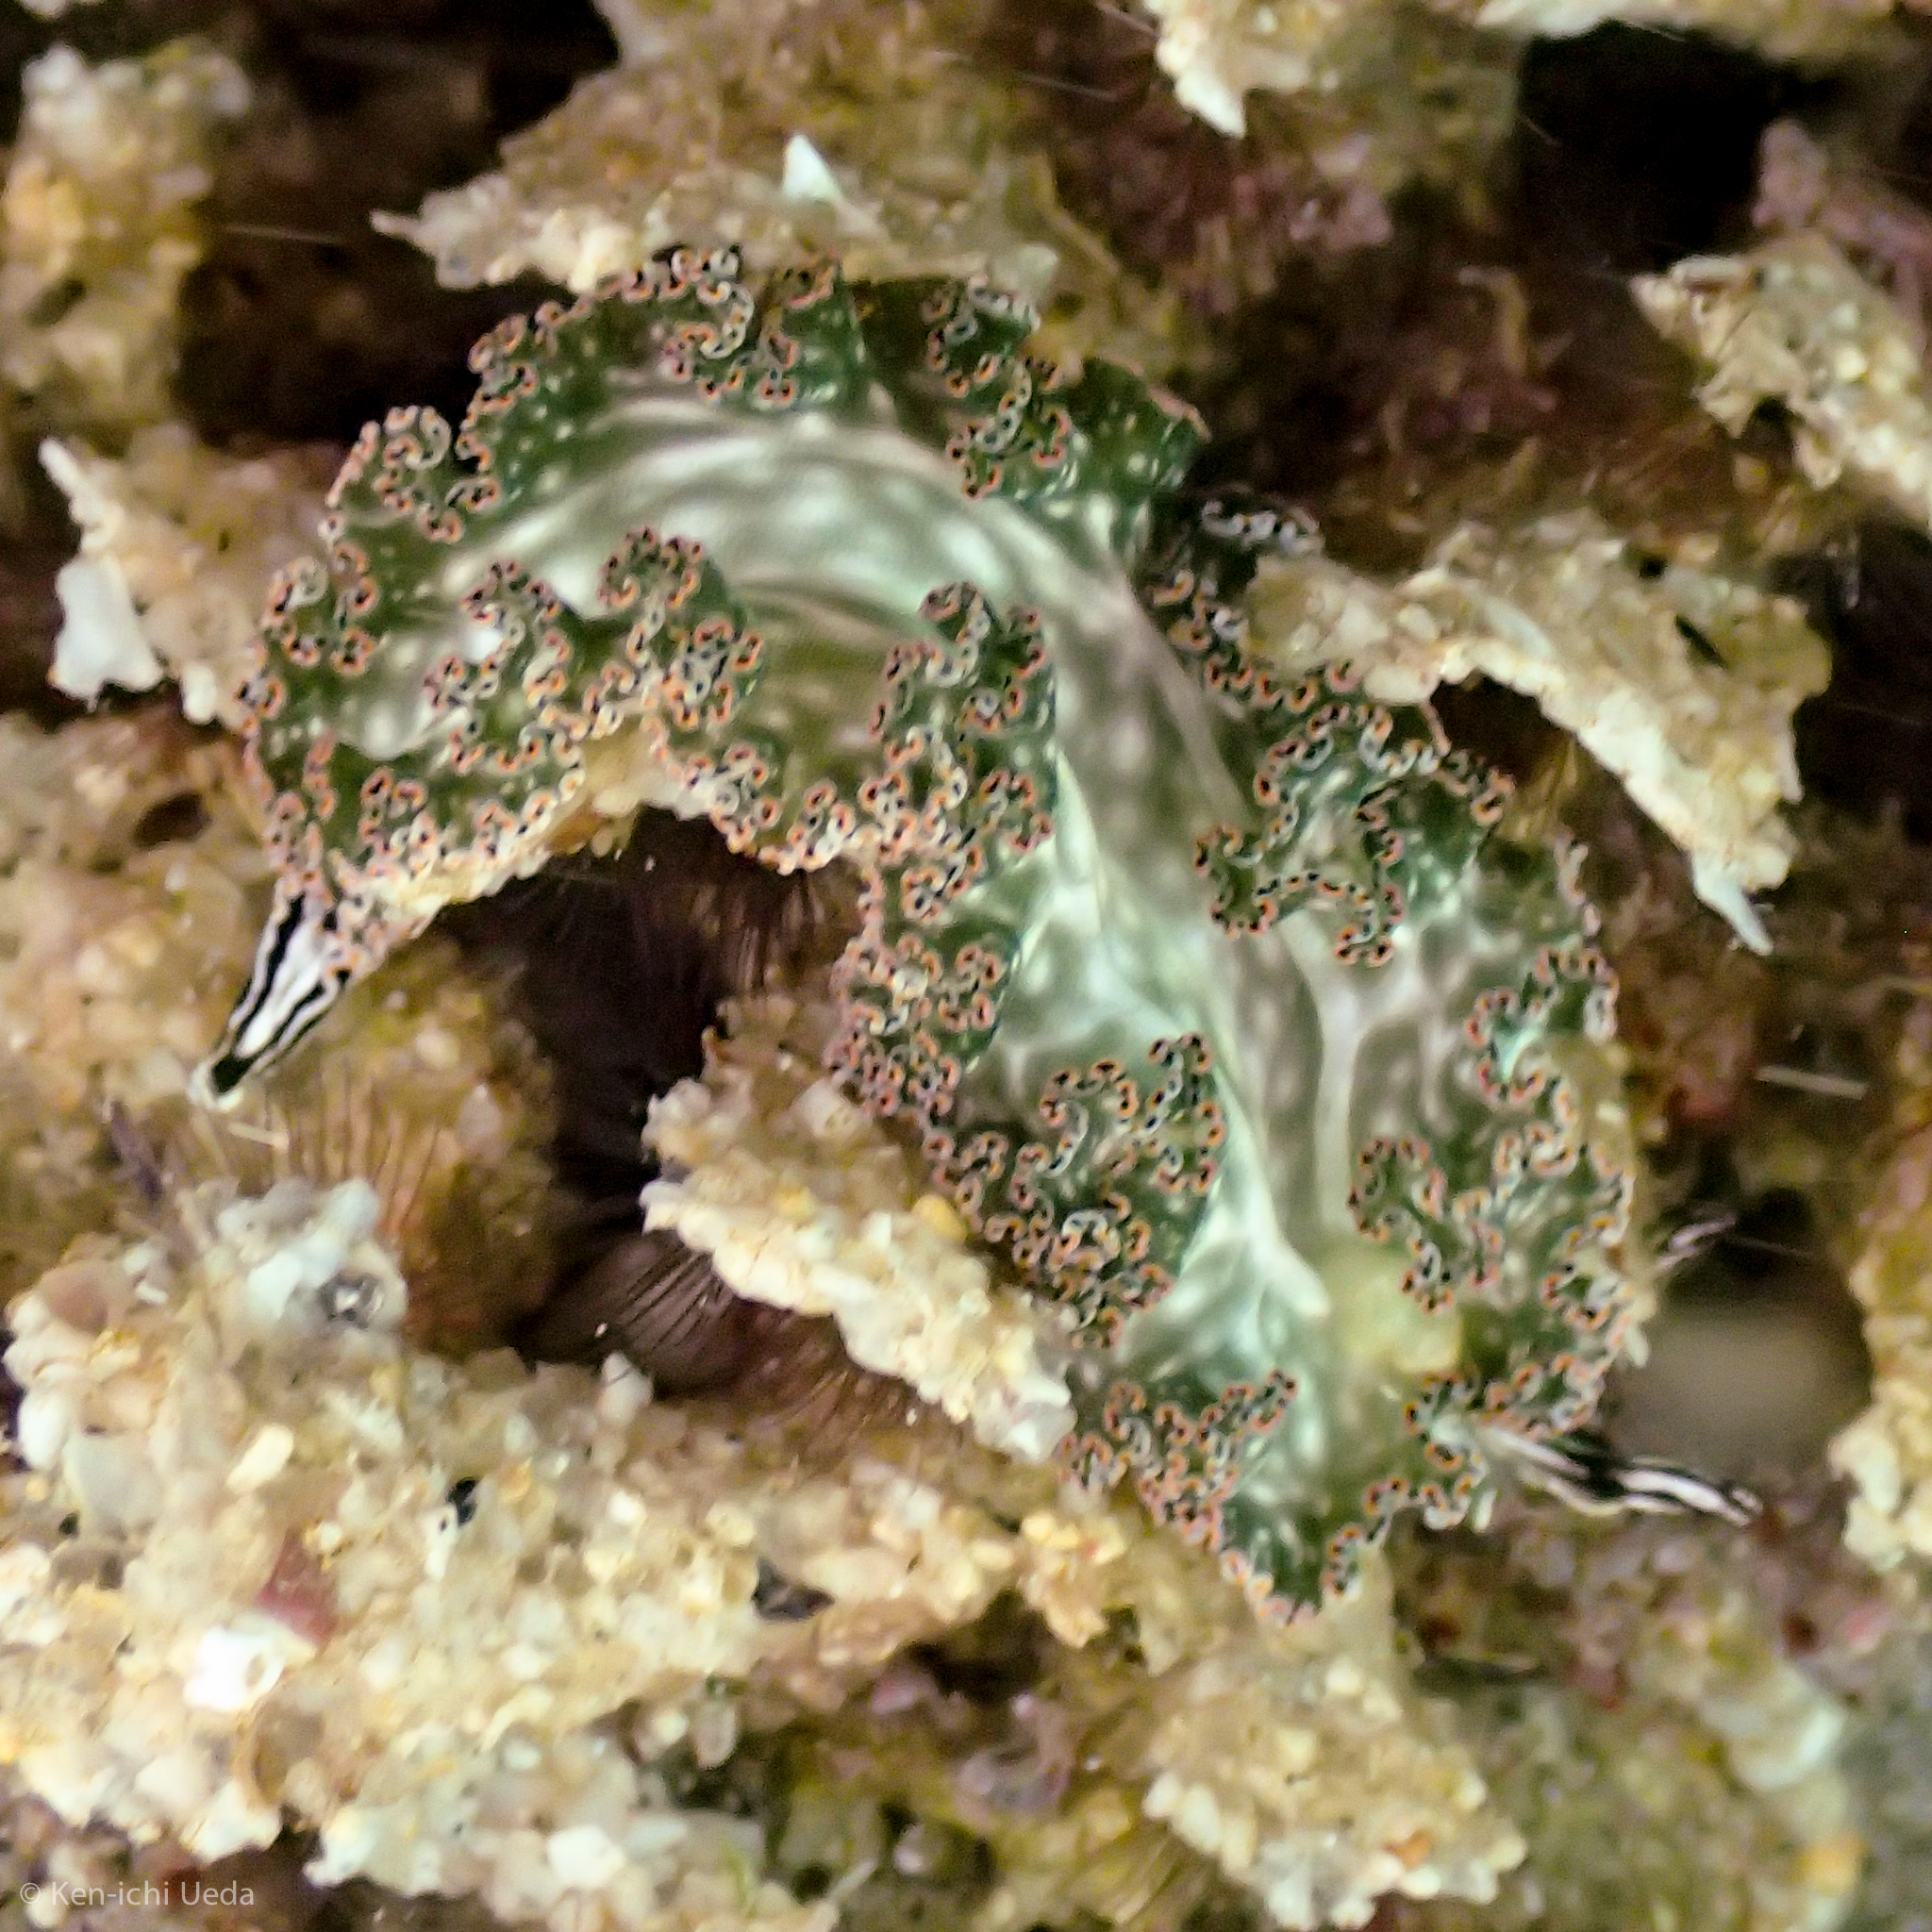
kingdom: Animalia
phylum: Mollusca
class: Gastropoda
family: Plakobranchidae
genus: Elysia
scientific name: Elysia diomedea
